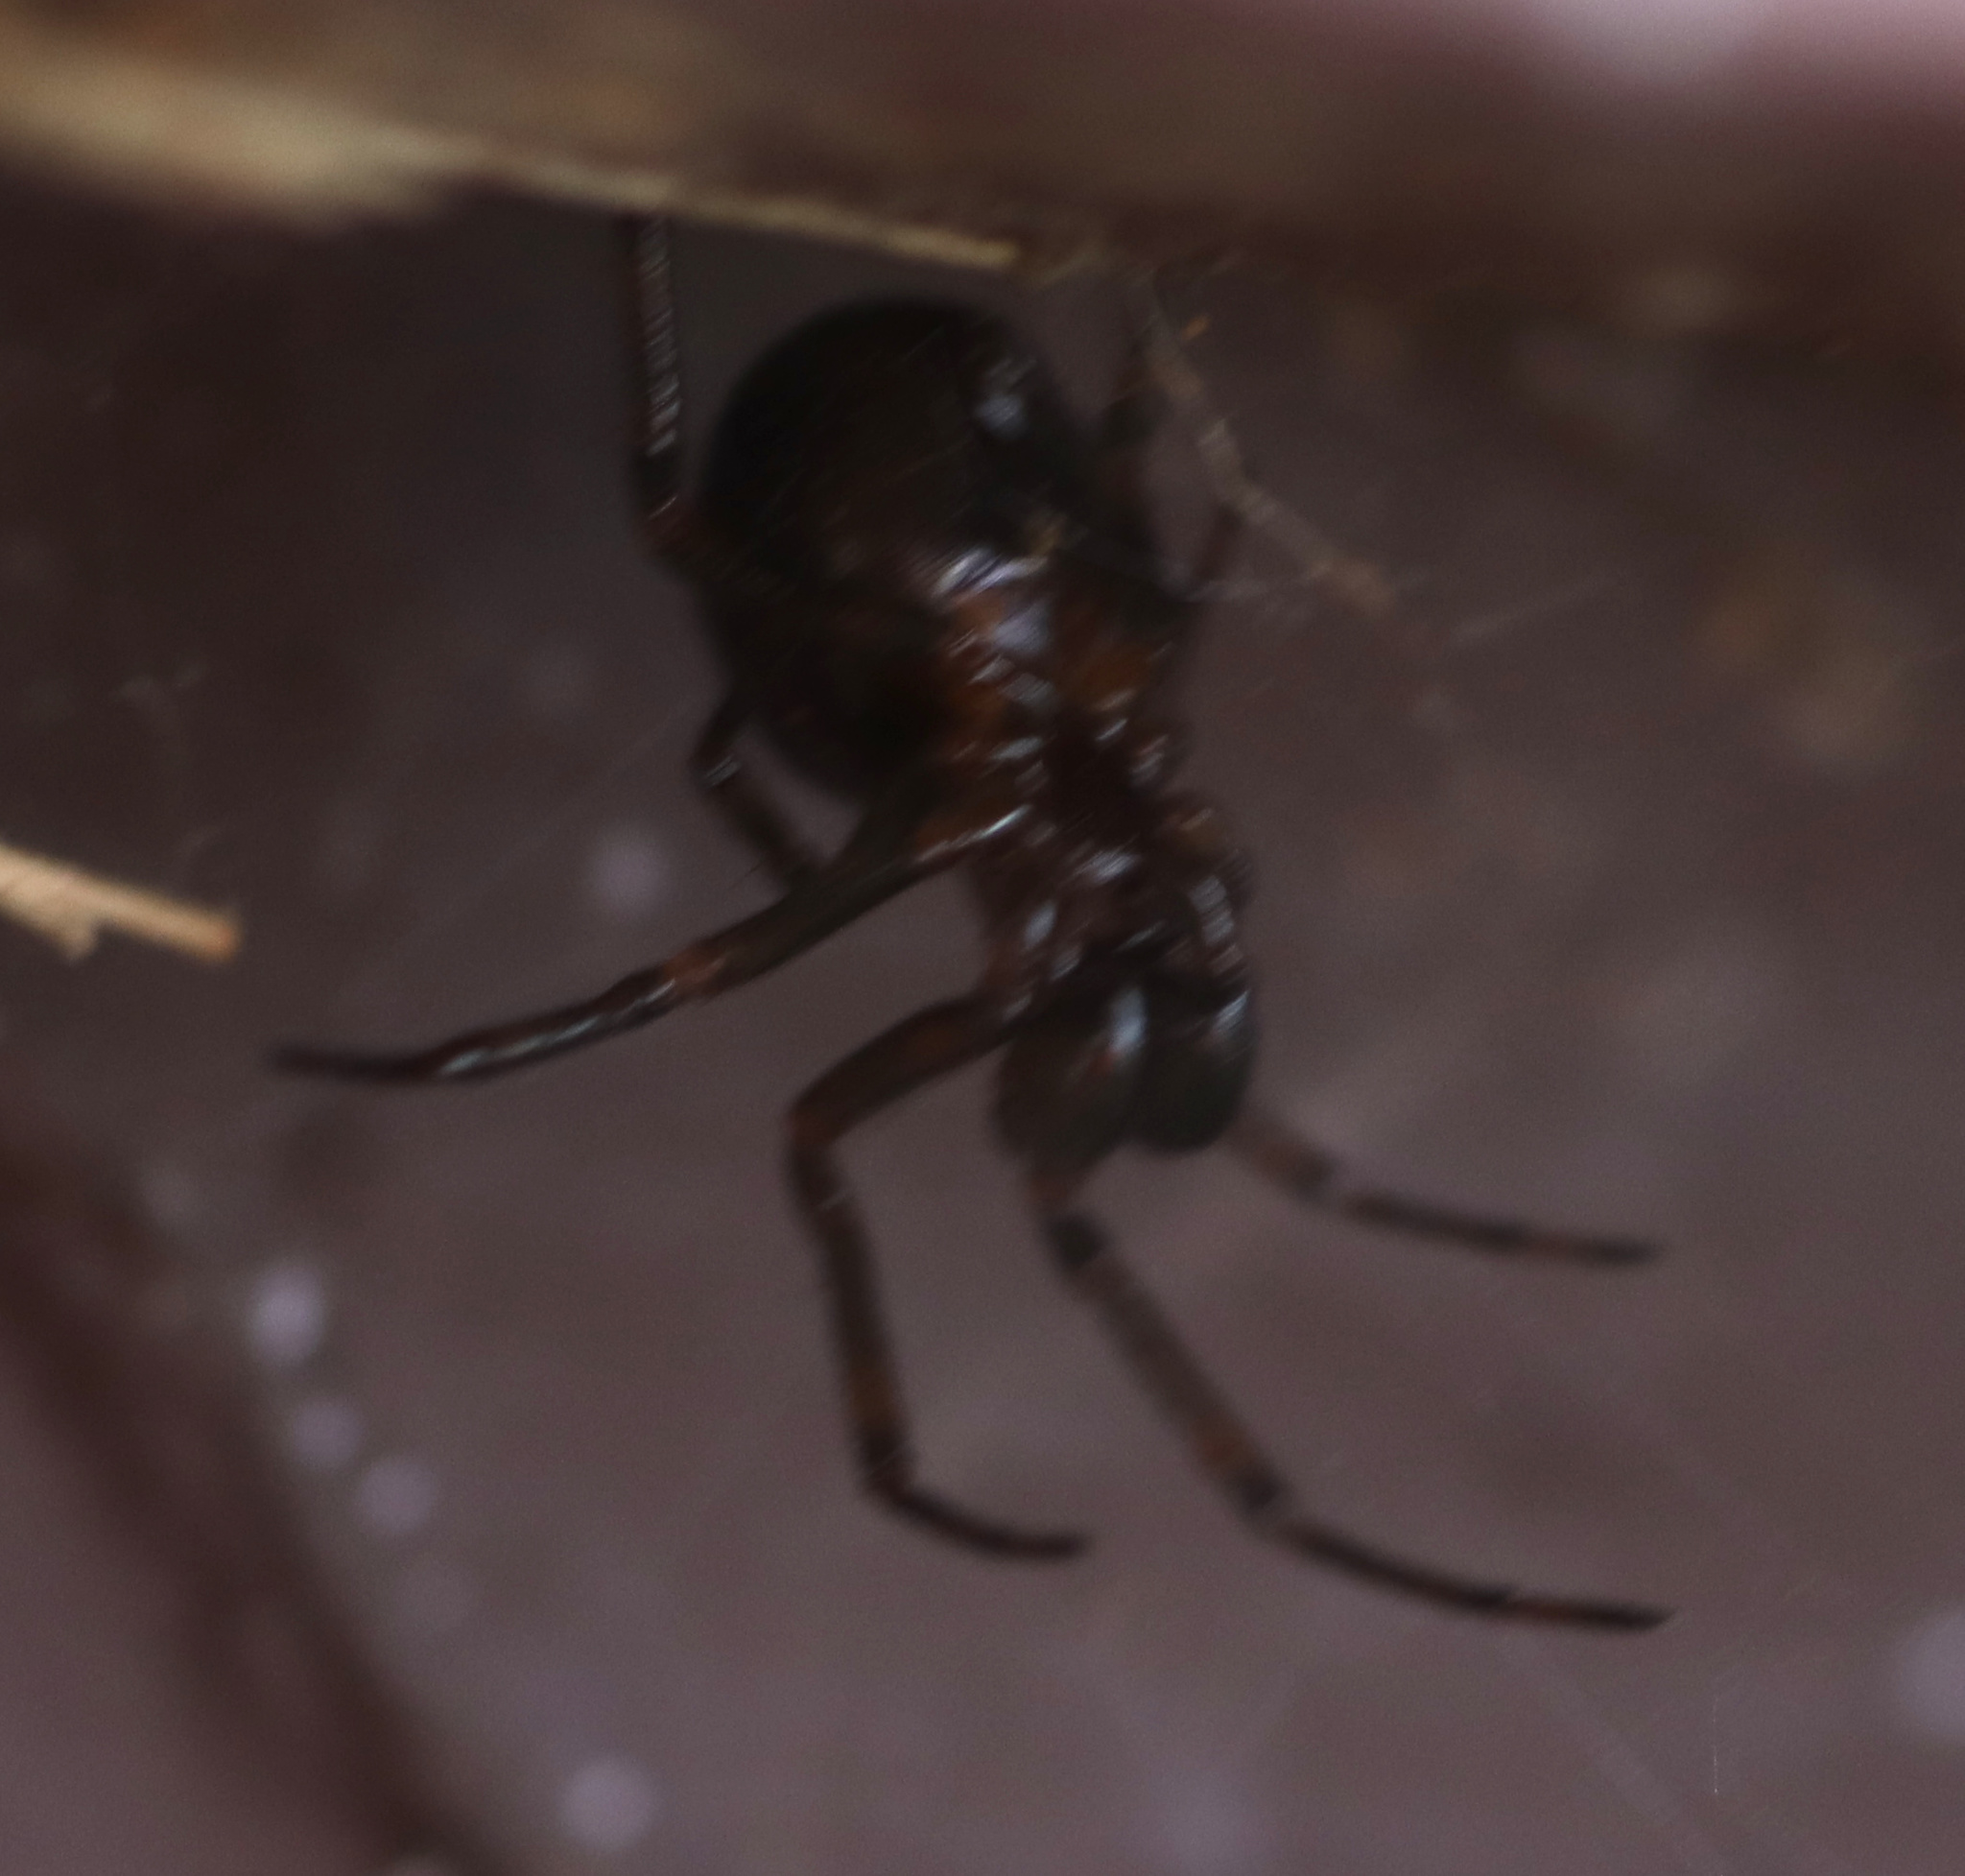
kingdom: Animalia
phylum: Arthropoda
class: Arachnida
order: Araneae
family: Theridiidae
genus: Steatoda
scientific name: Steatoda borealis
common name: Boreal combfoot
